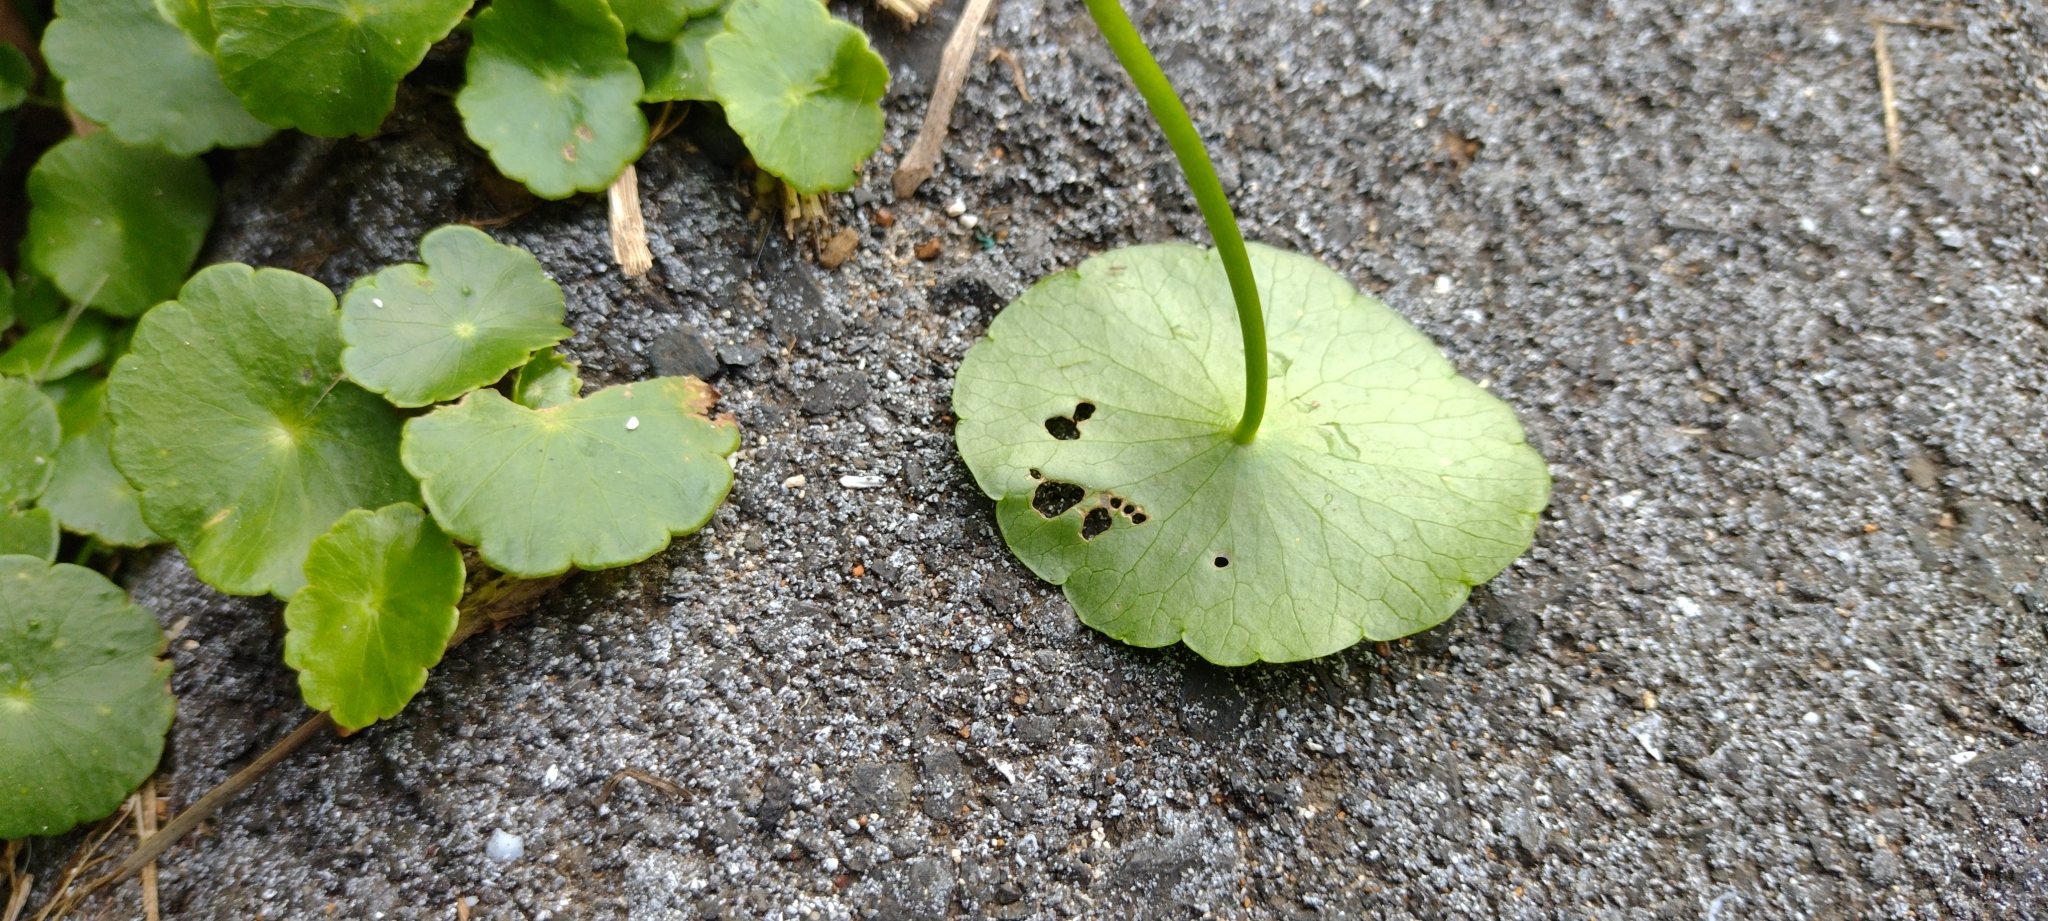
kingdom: Plantae
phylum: Tracheophyta
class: Magnoliopsida
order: Apiales
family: Araliaceae
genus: Hydrocotyle
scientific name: Hydrocotyle verticillata
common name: Whorled marshpennywort
